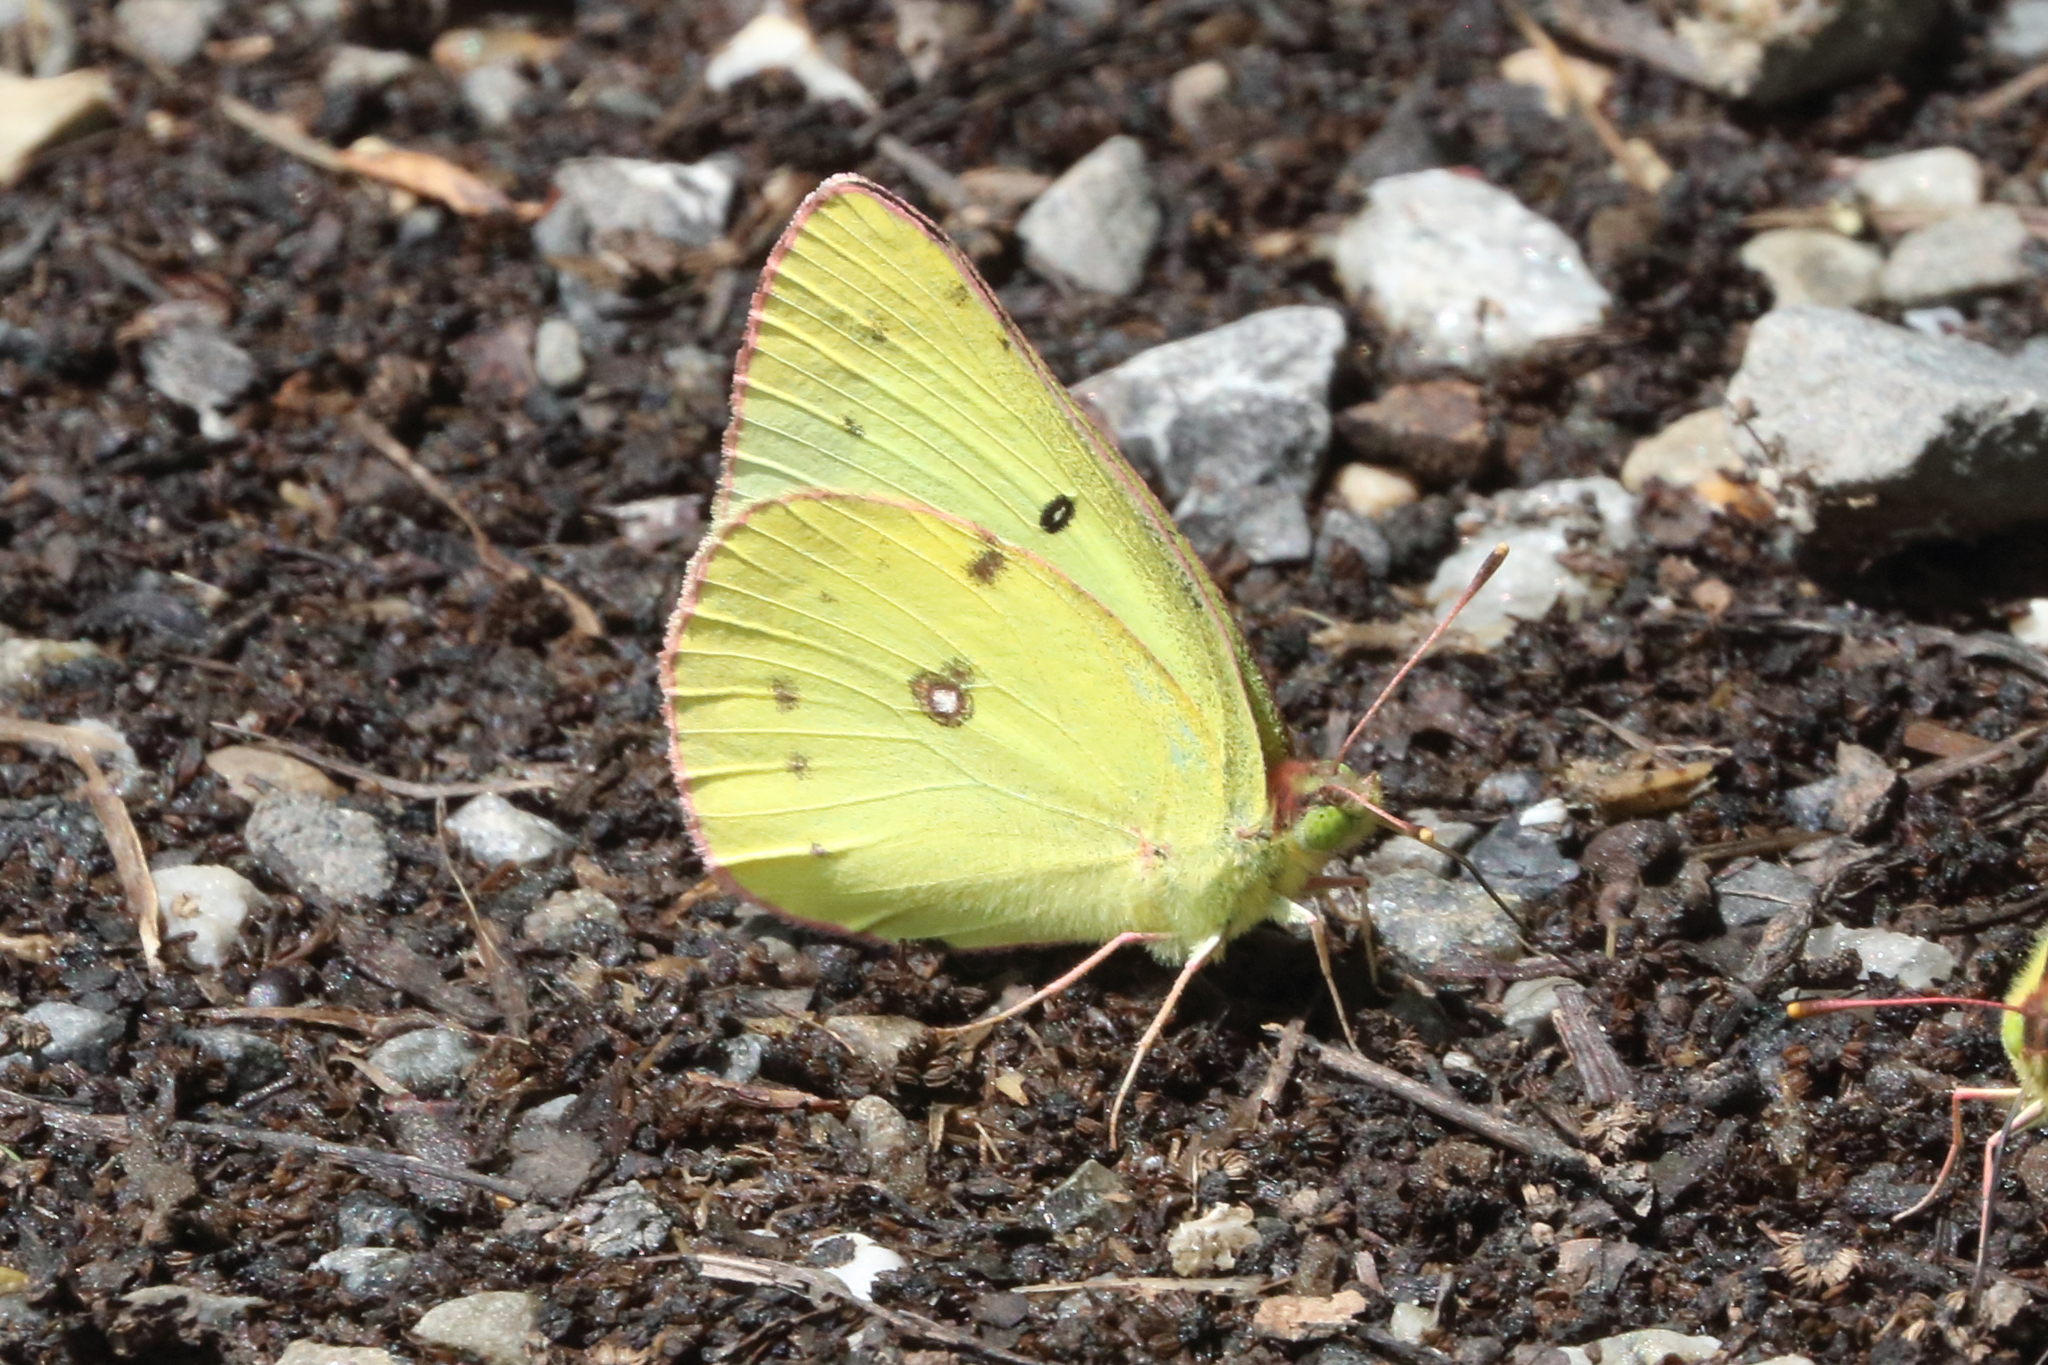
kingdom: Animalia
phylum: Arthropoda
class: Insecta
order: Lepidoptera
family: Pieridae
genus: Colias
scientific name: Colias philodice
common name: Clouded sulphur
